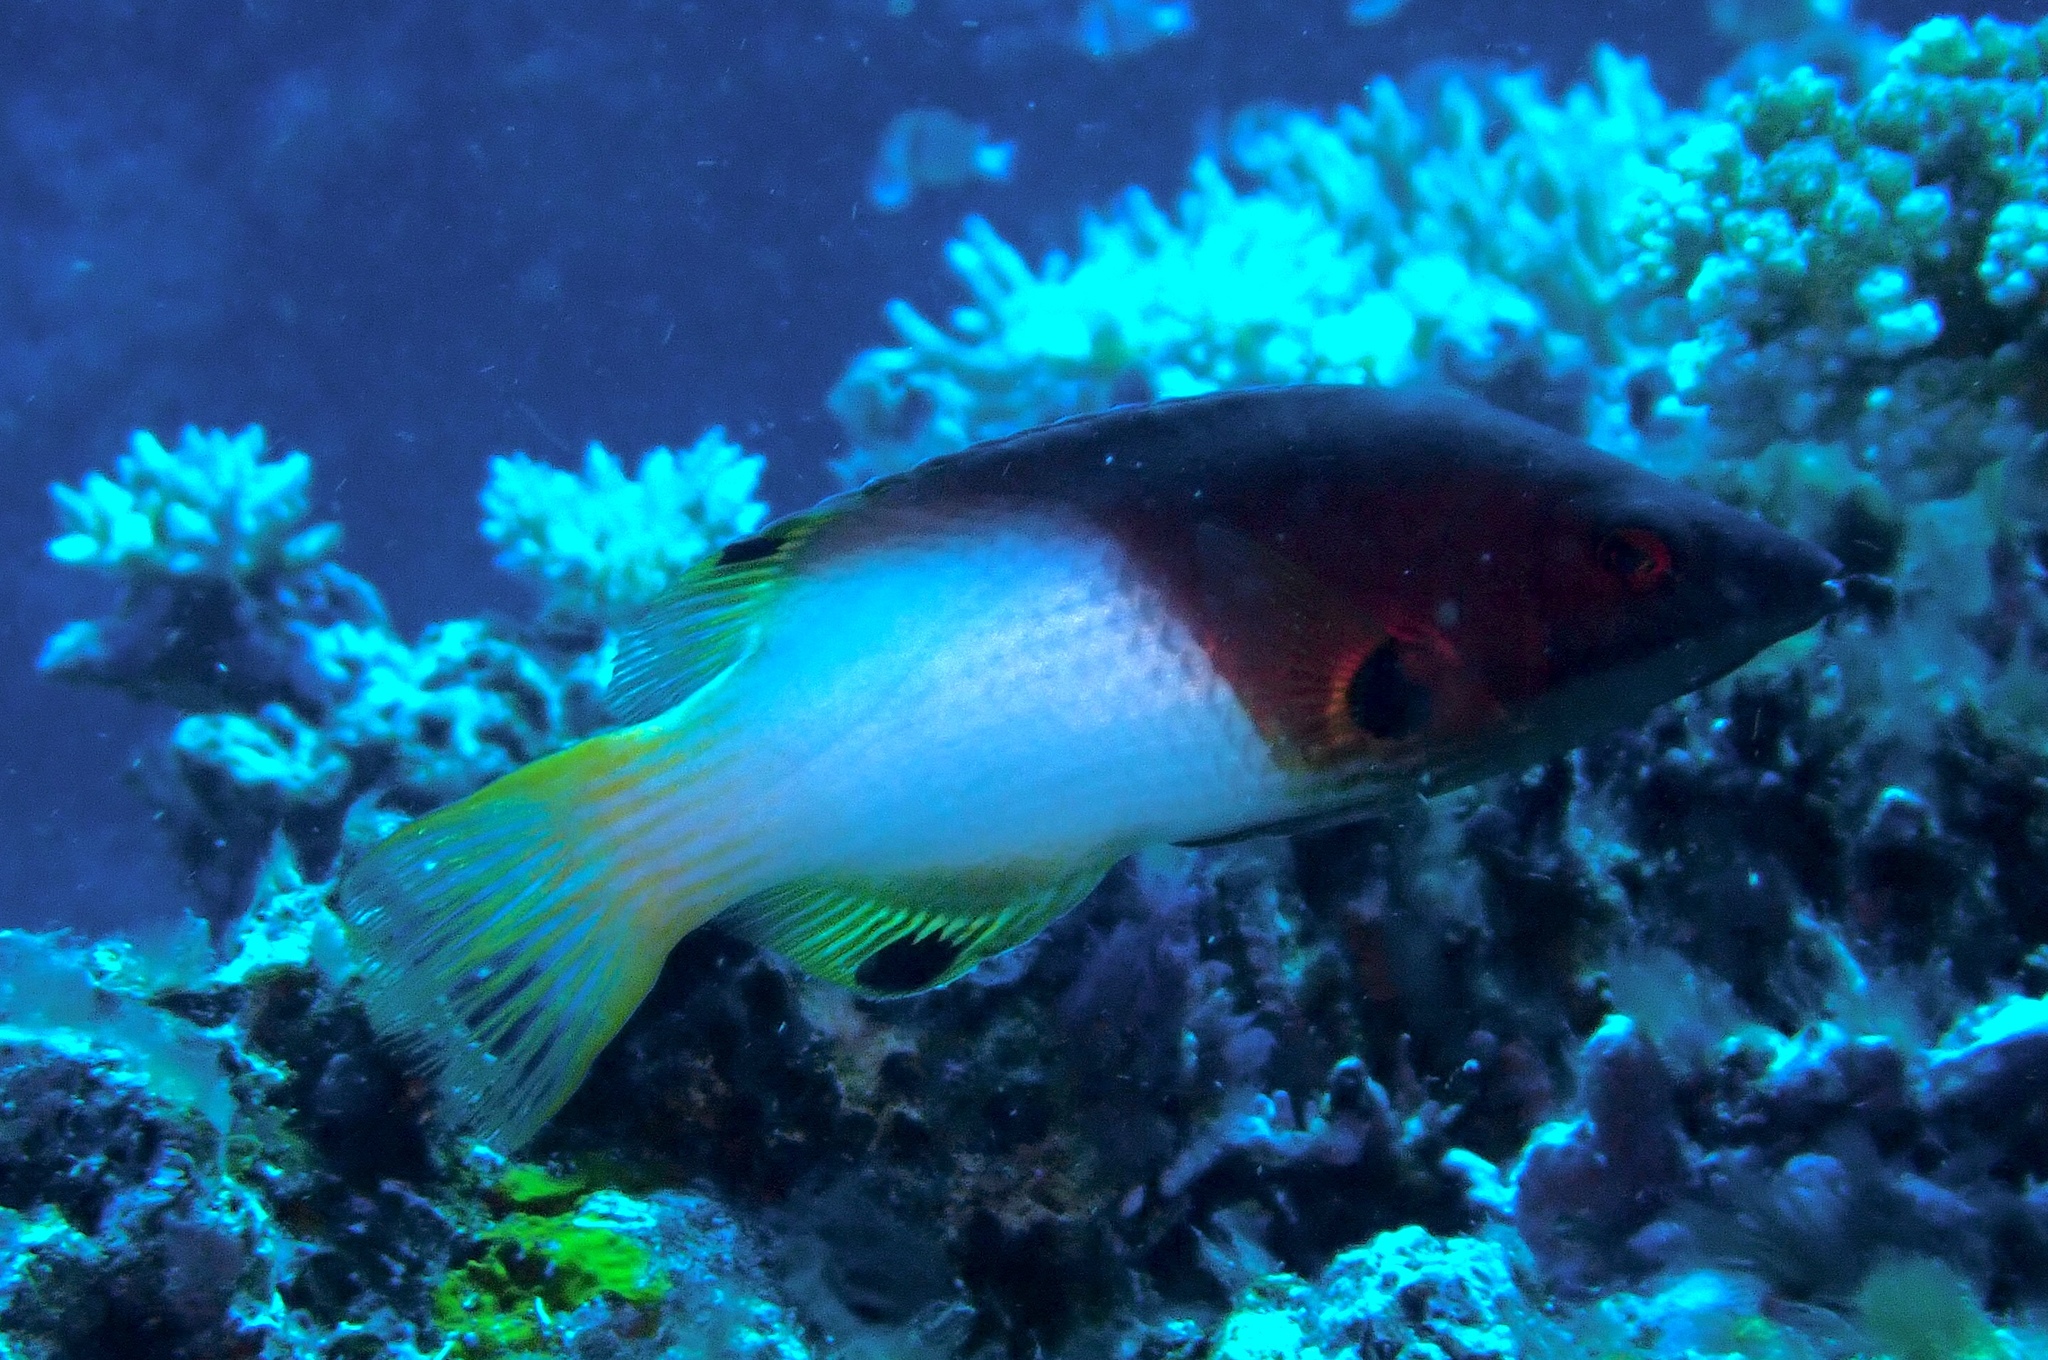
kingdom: Animalia
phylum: Chordata
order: Perciformes
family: Labridae
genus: Bodianus
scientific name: Bodianus axillaris
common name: Axilspot hogfish
